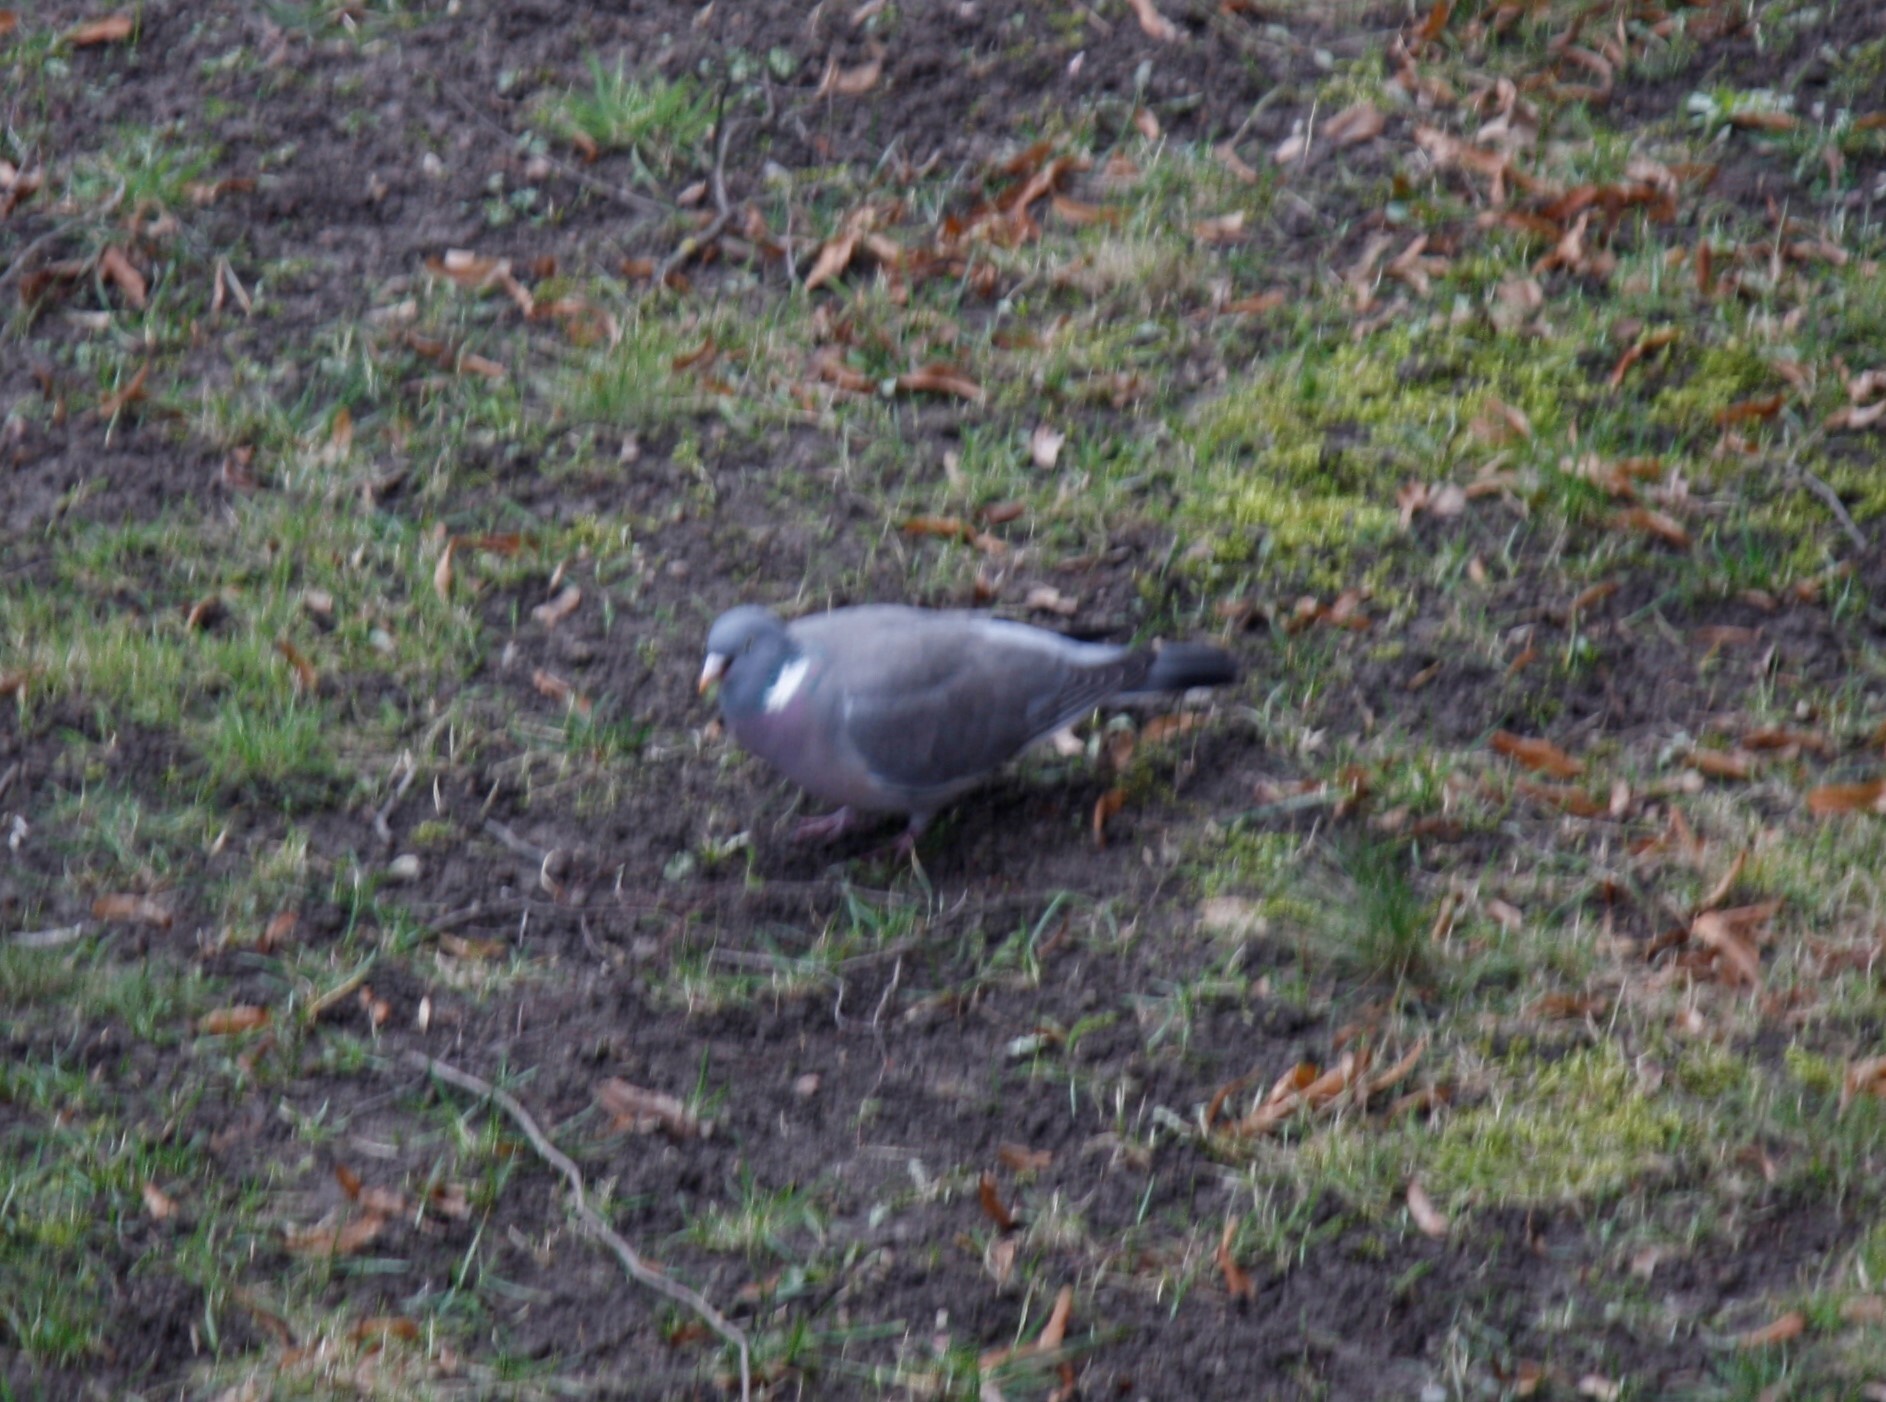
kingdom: Animalia
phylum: Chordata
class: Aves
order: Columbiformes
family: Columbidae
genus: Columba
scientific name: Columba palumbus
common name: Common wood pigeon
